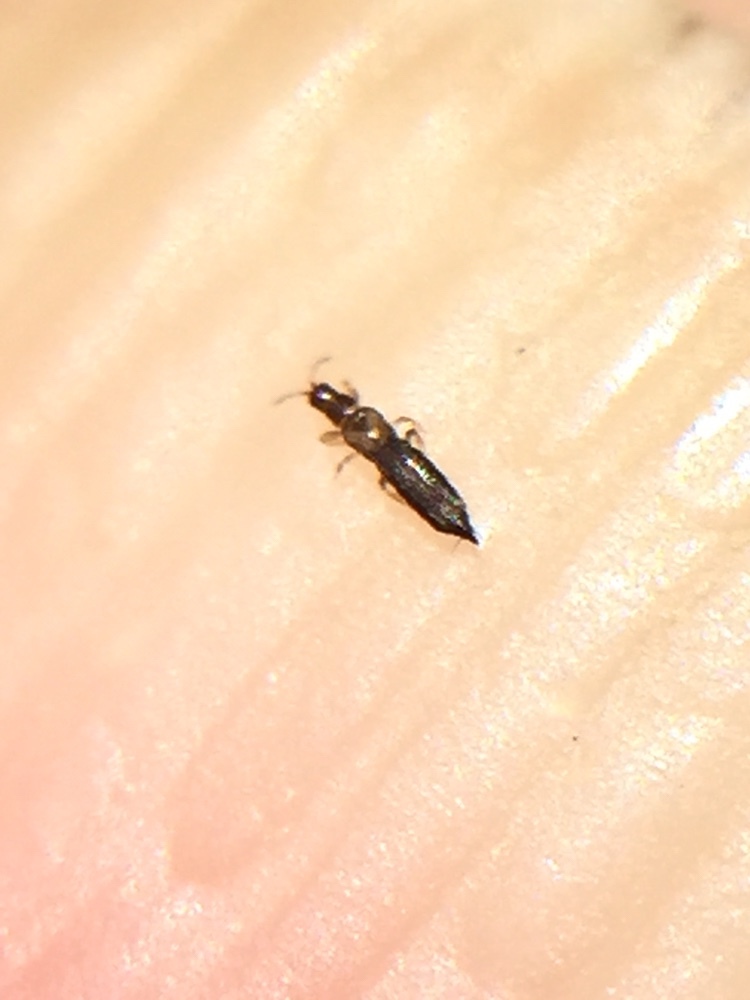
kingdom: Animalia
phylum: Arthropoda
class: Insecta
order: Thysanoptera
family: Thripidae
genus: Stenchaetothrips
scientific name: Stenchaetothrips martini
